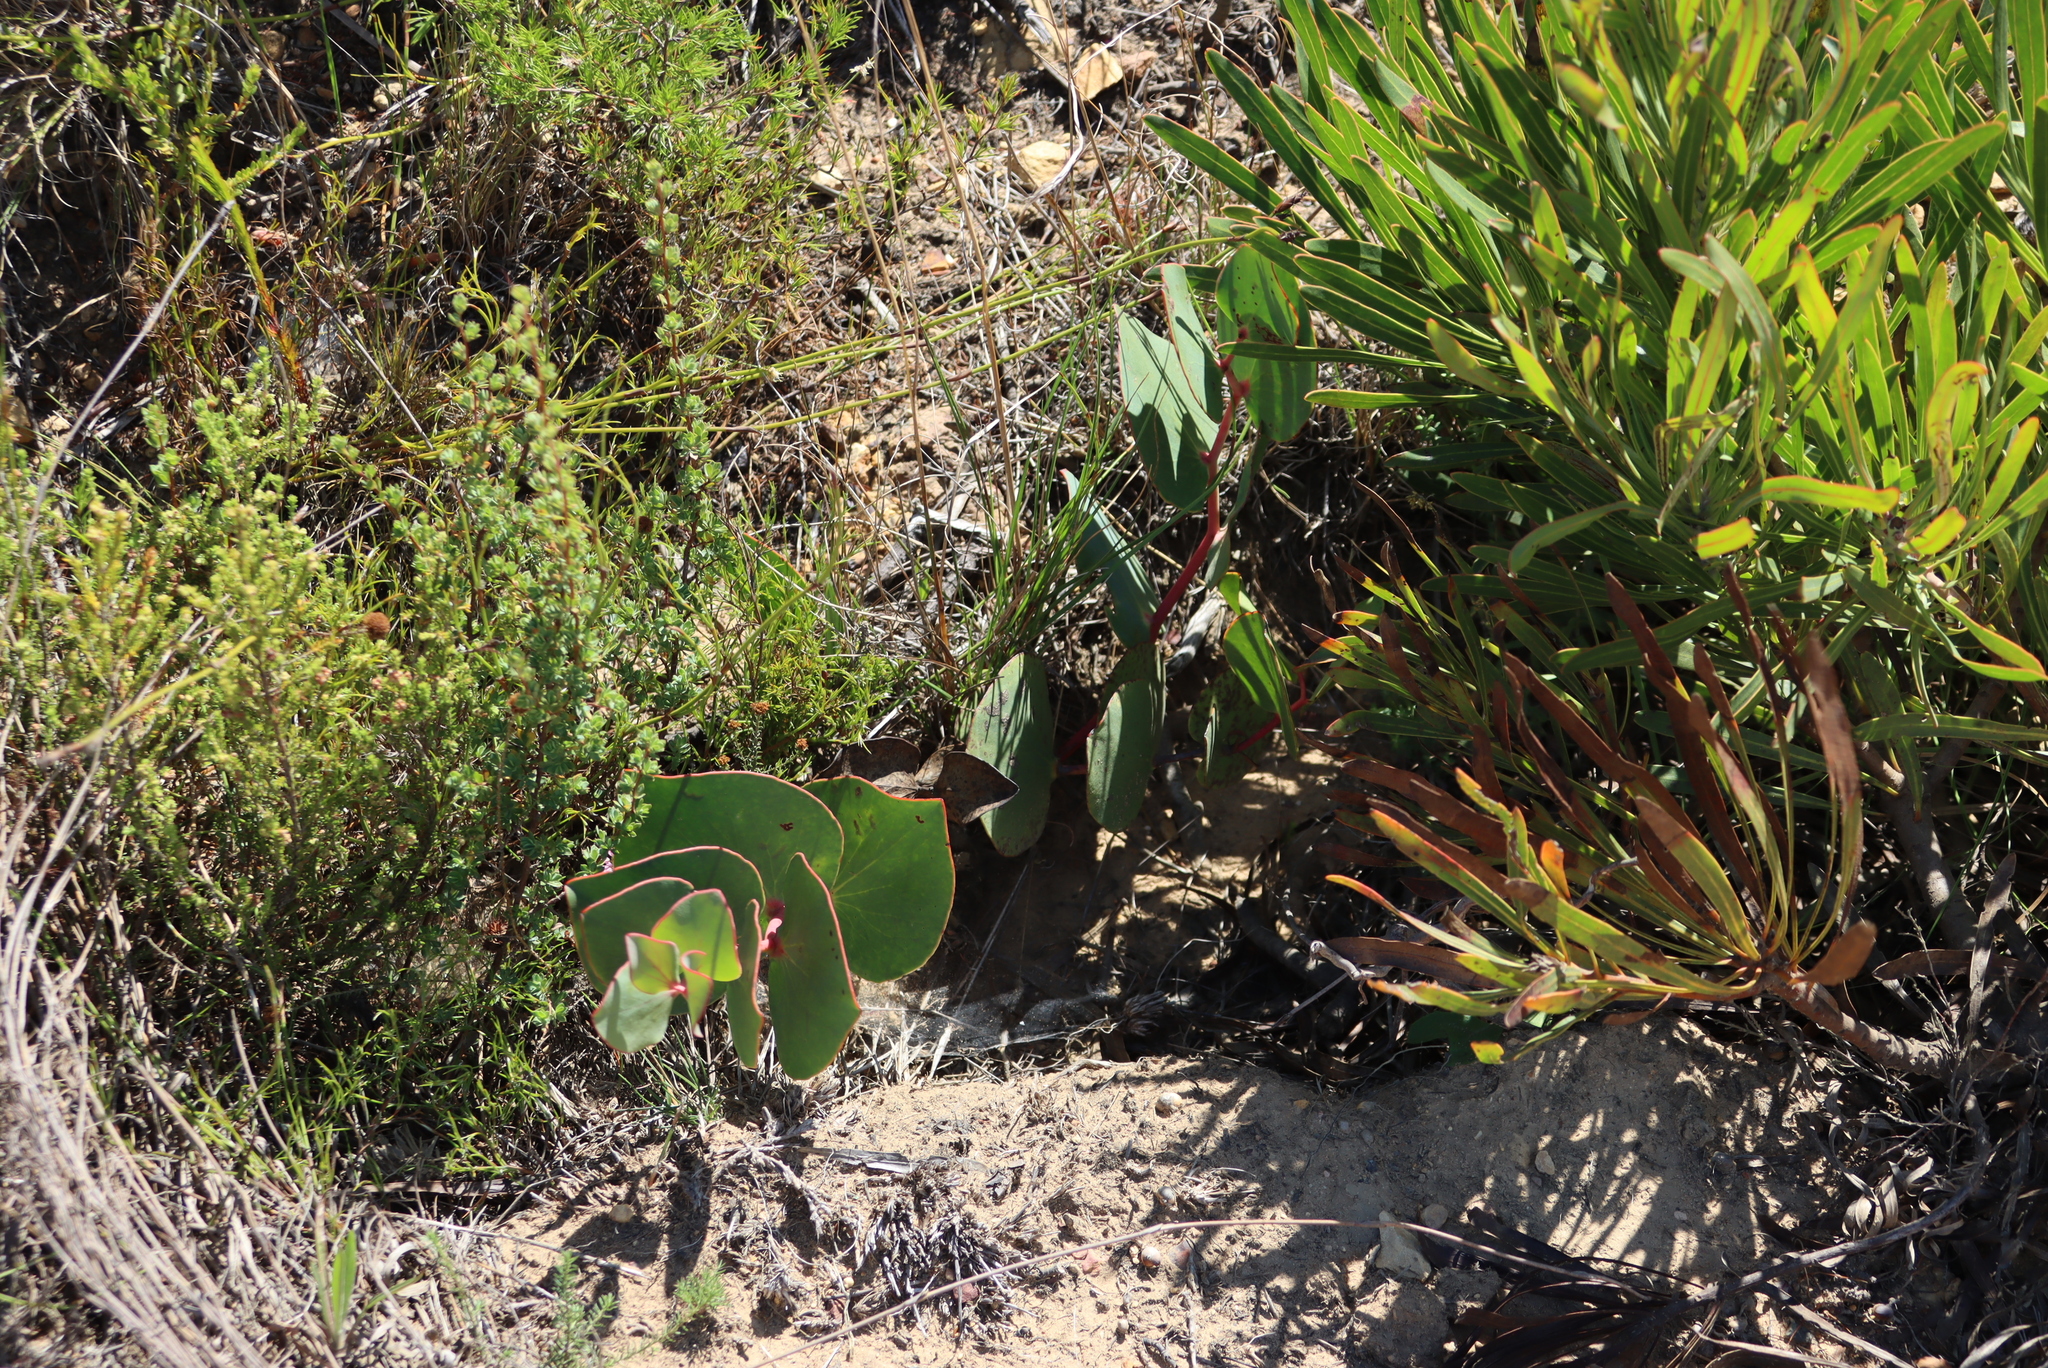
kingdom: Plantae
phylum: Tracheophyta
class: Magnoliopsida
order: Proteales
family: Proteaceae
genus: Protea
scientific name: Protea cordata
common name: Heart-leaf sugarbush
